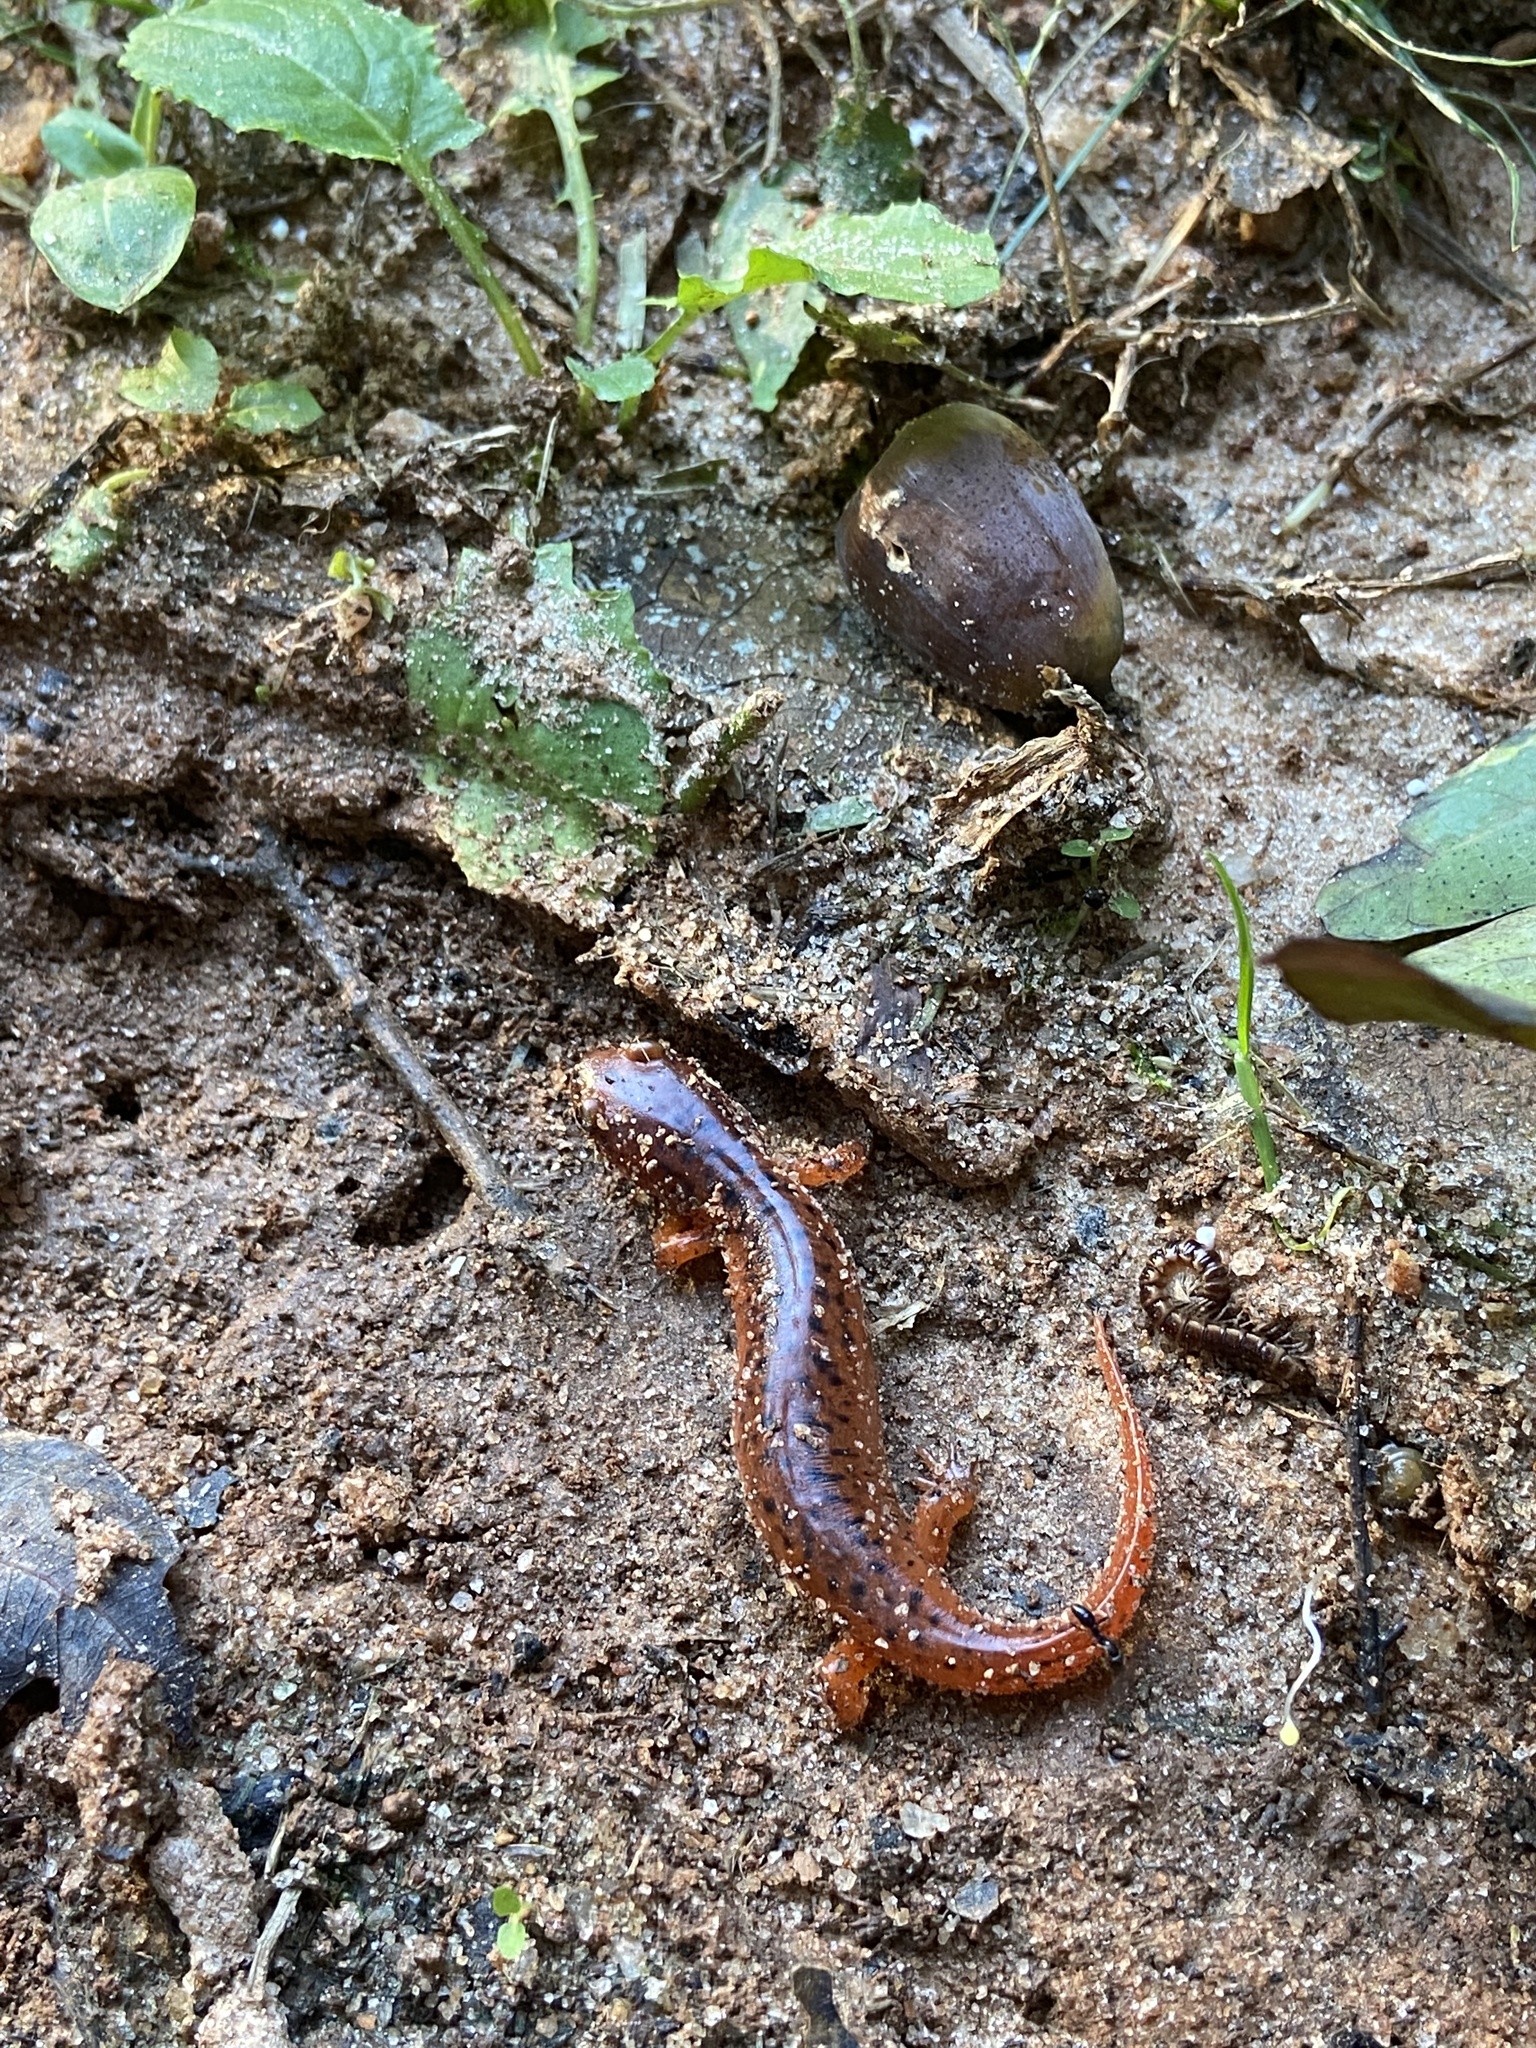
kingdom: Animalia
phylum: Chordata
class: Amphibia
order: Caudata
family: Plethodontidae
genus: Pseudotriton
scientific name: Pseudotriton ruber
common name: Red salamander
